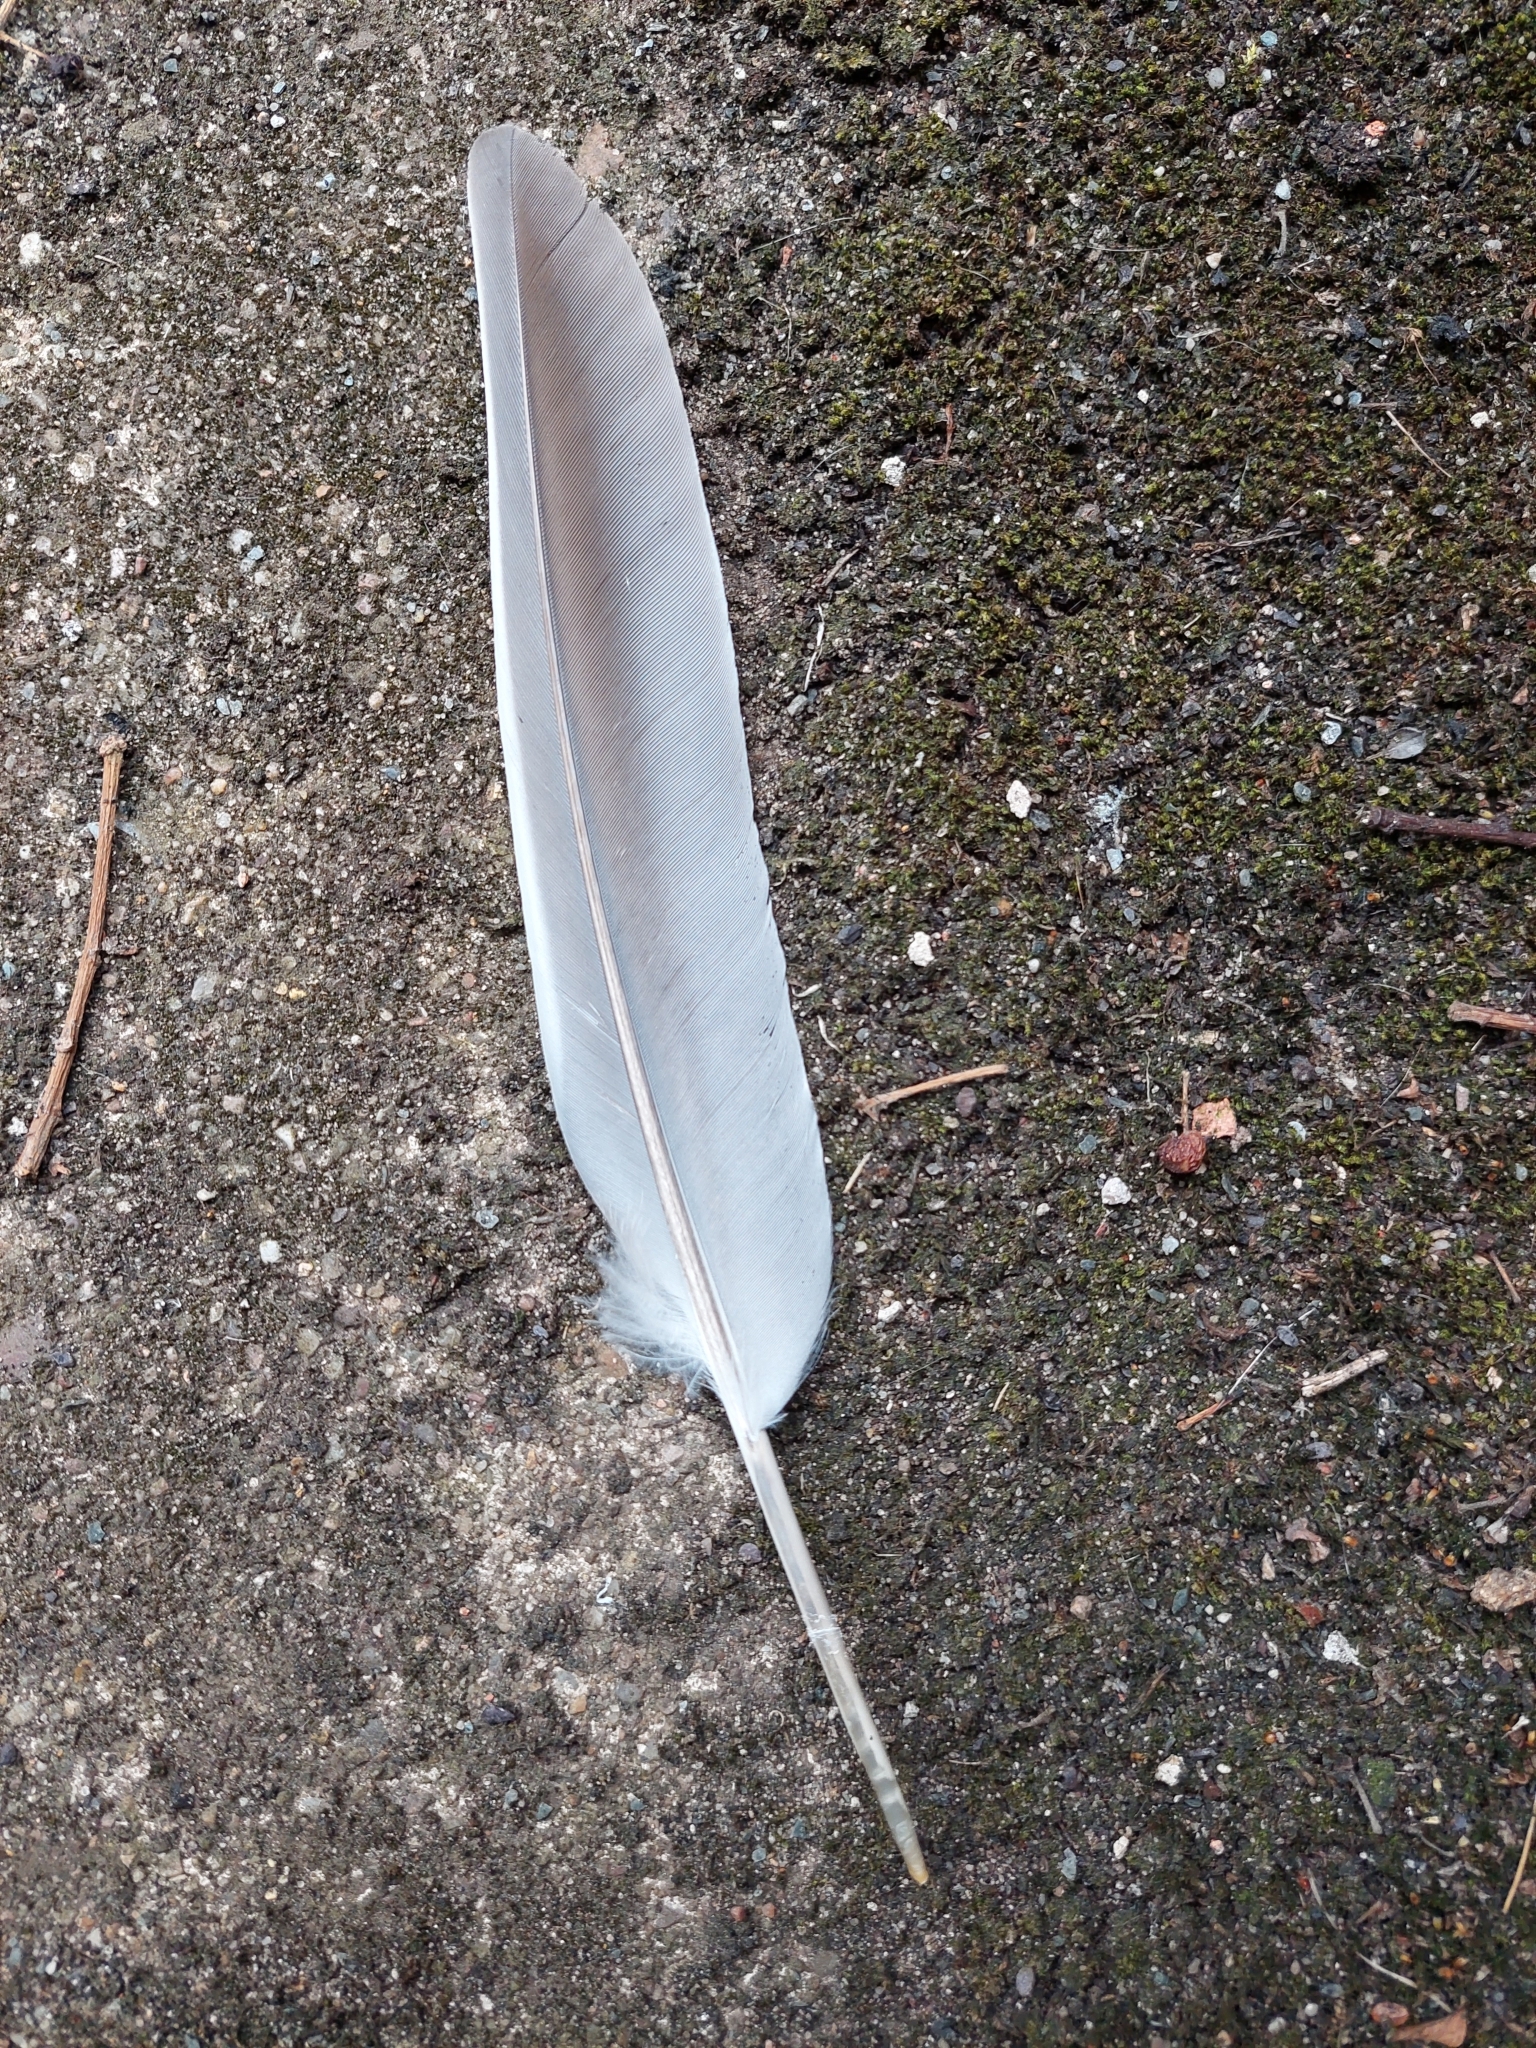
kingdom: Animalia
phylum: Chordata
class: Aves
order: Columbiformes
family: Columbidae
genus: Columba
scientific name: Columba palumbus
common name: Common wood pigeon
